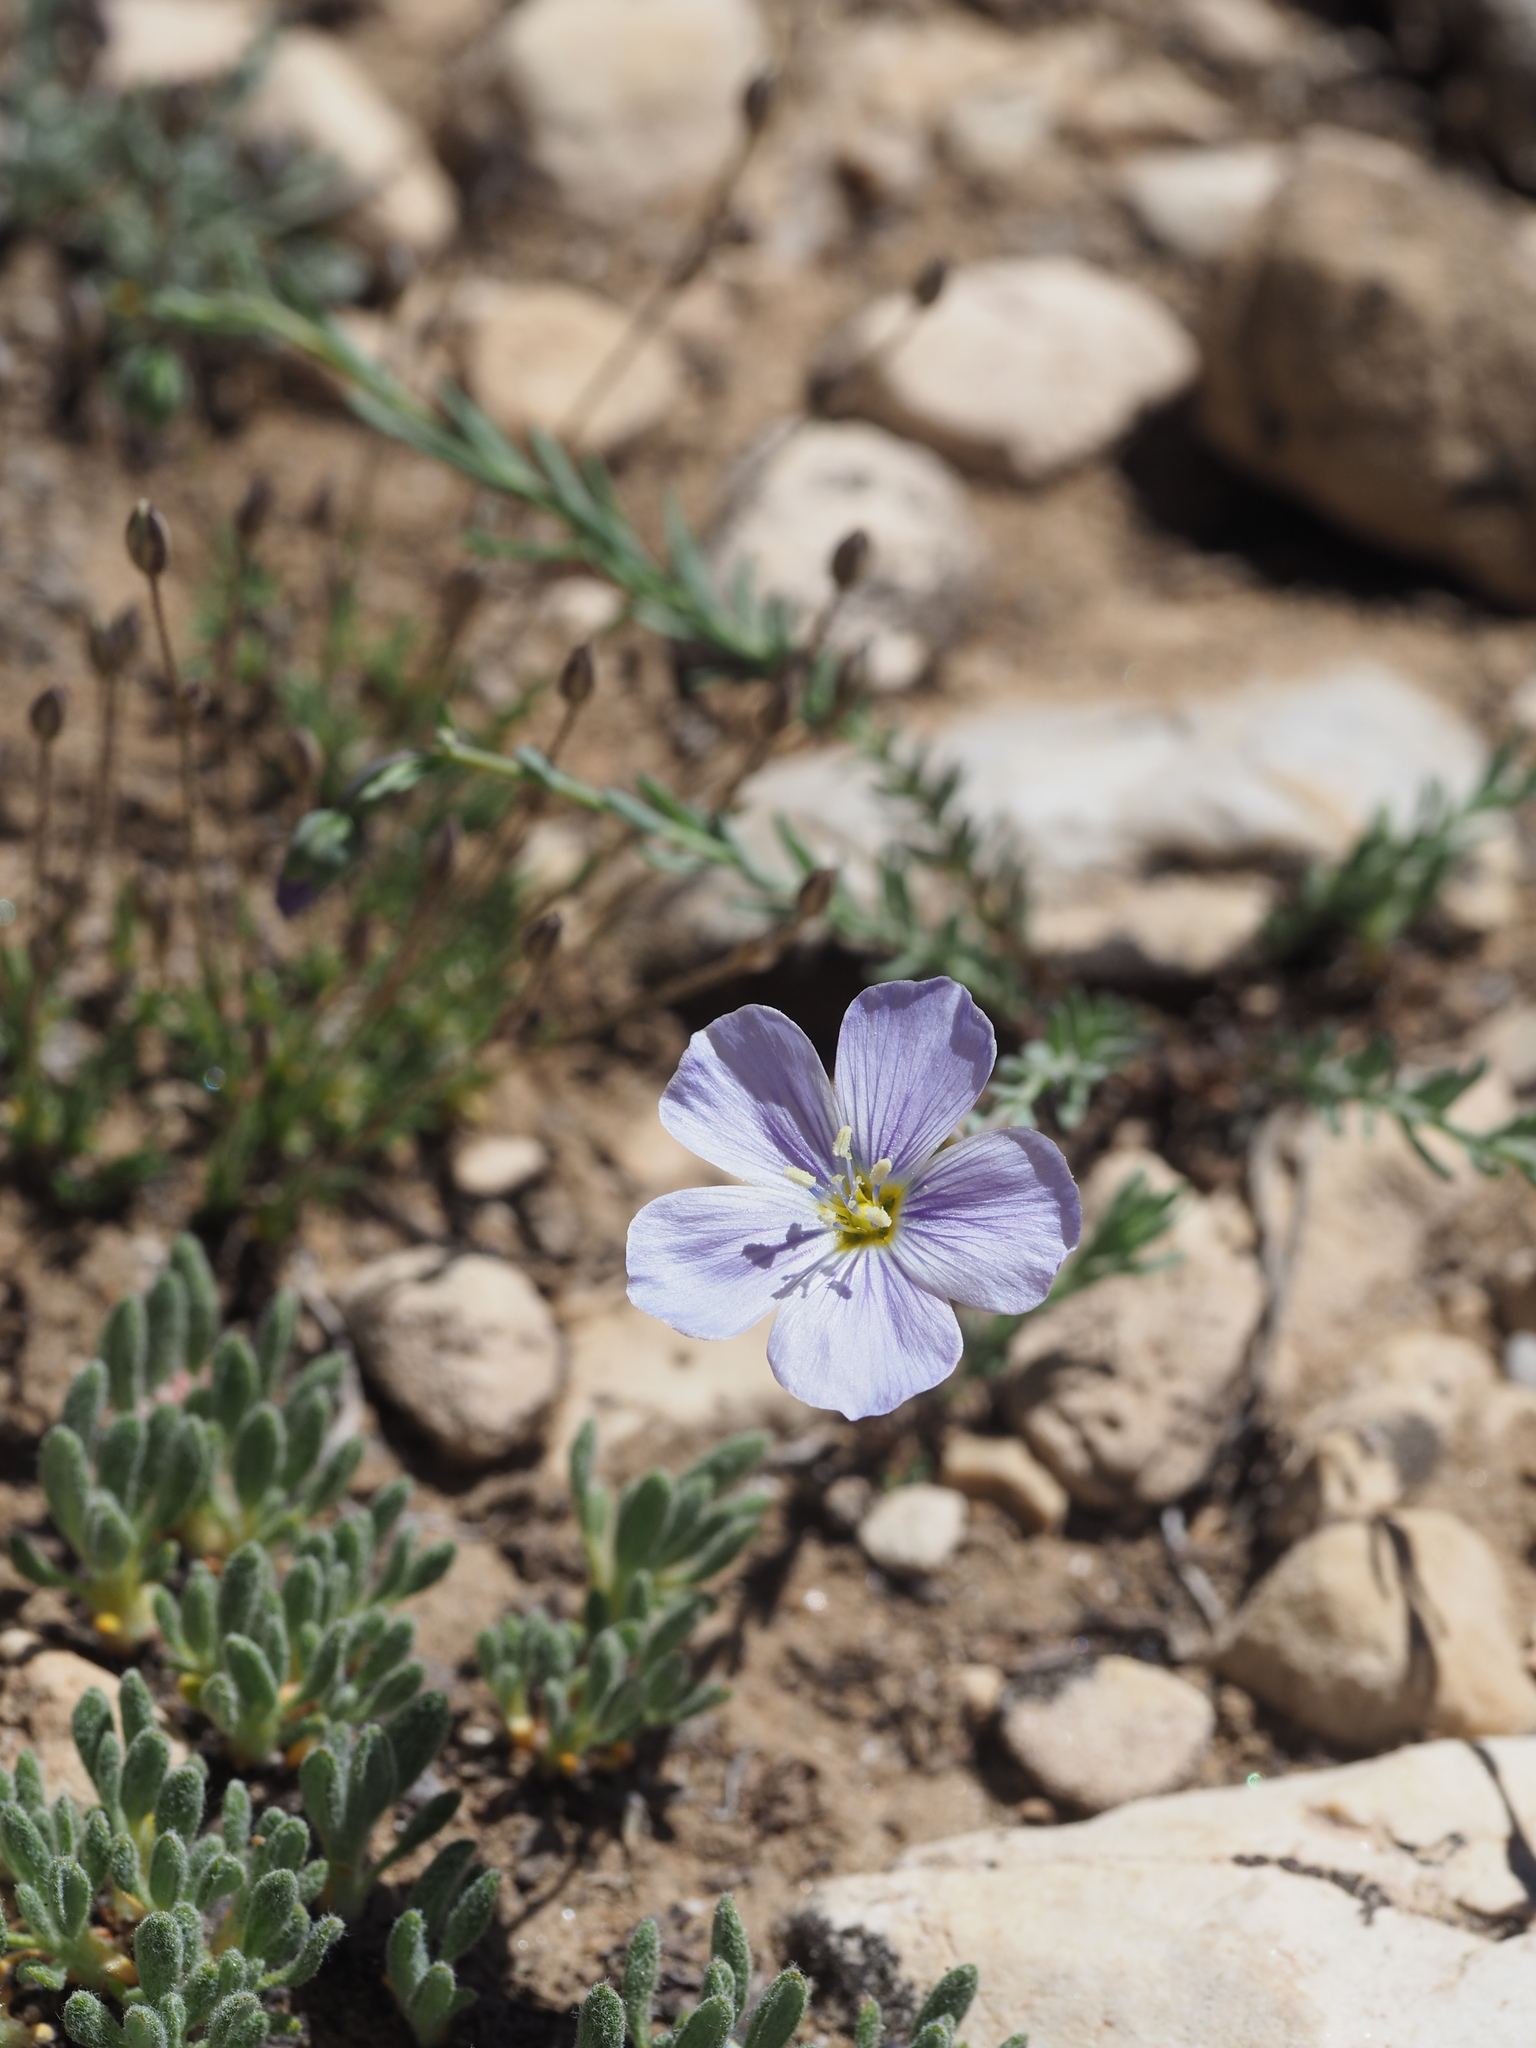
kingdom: Plantae
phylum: Tracheophyta
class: Magnoliopsida
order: Malpighiales
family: Linaceae
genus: Linum
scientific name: Linum lewisii
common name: Prairie flax
